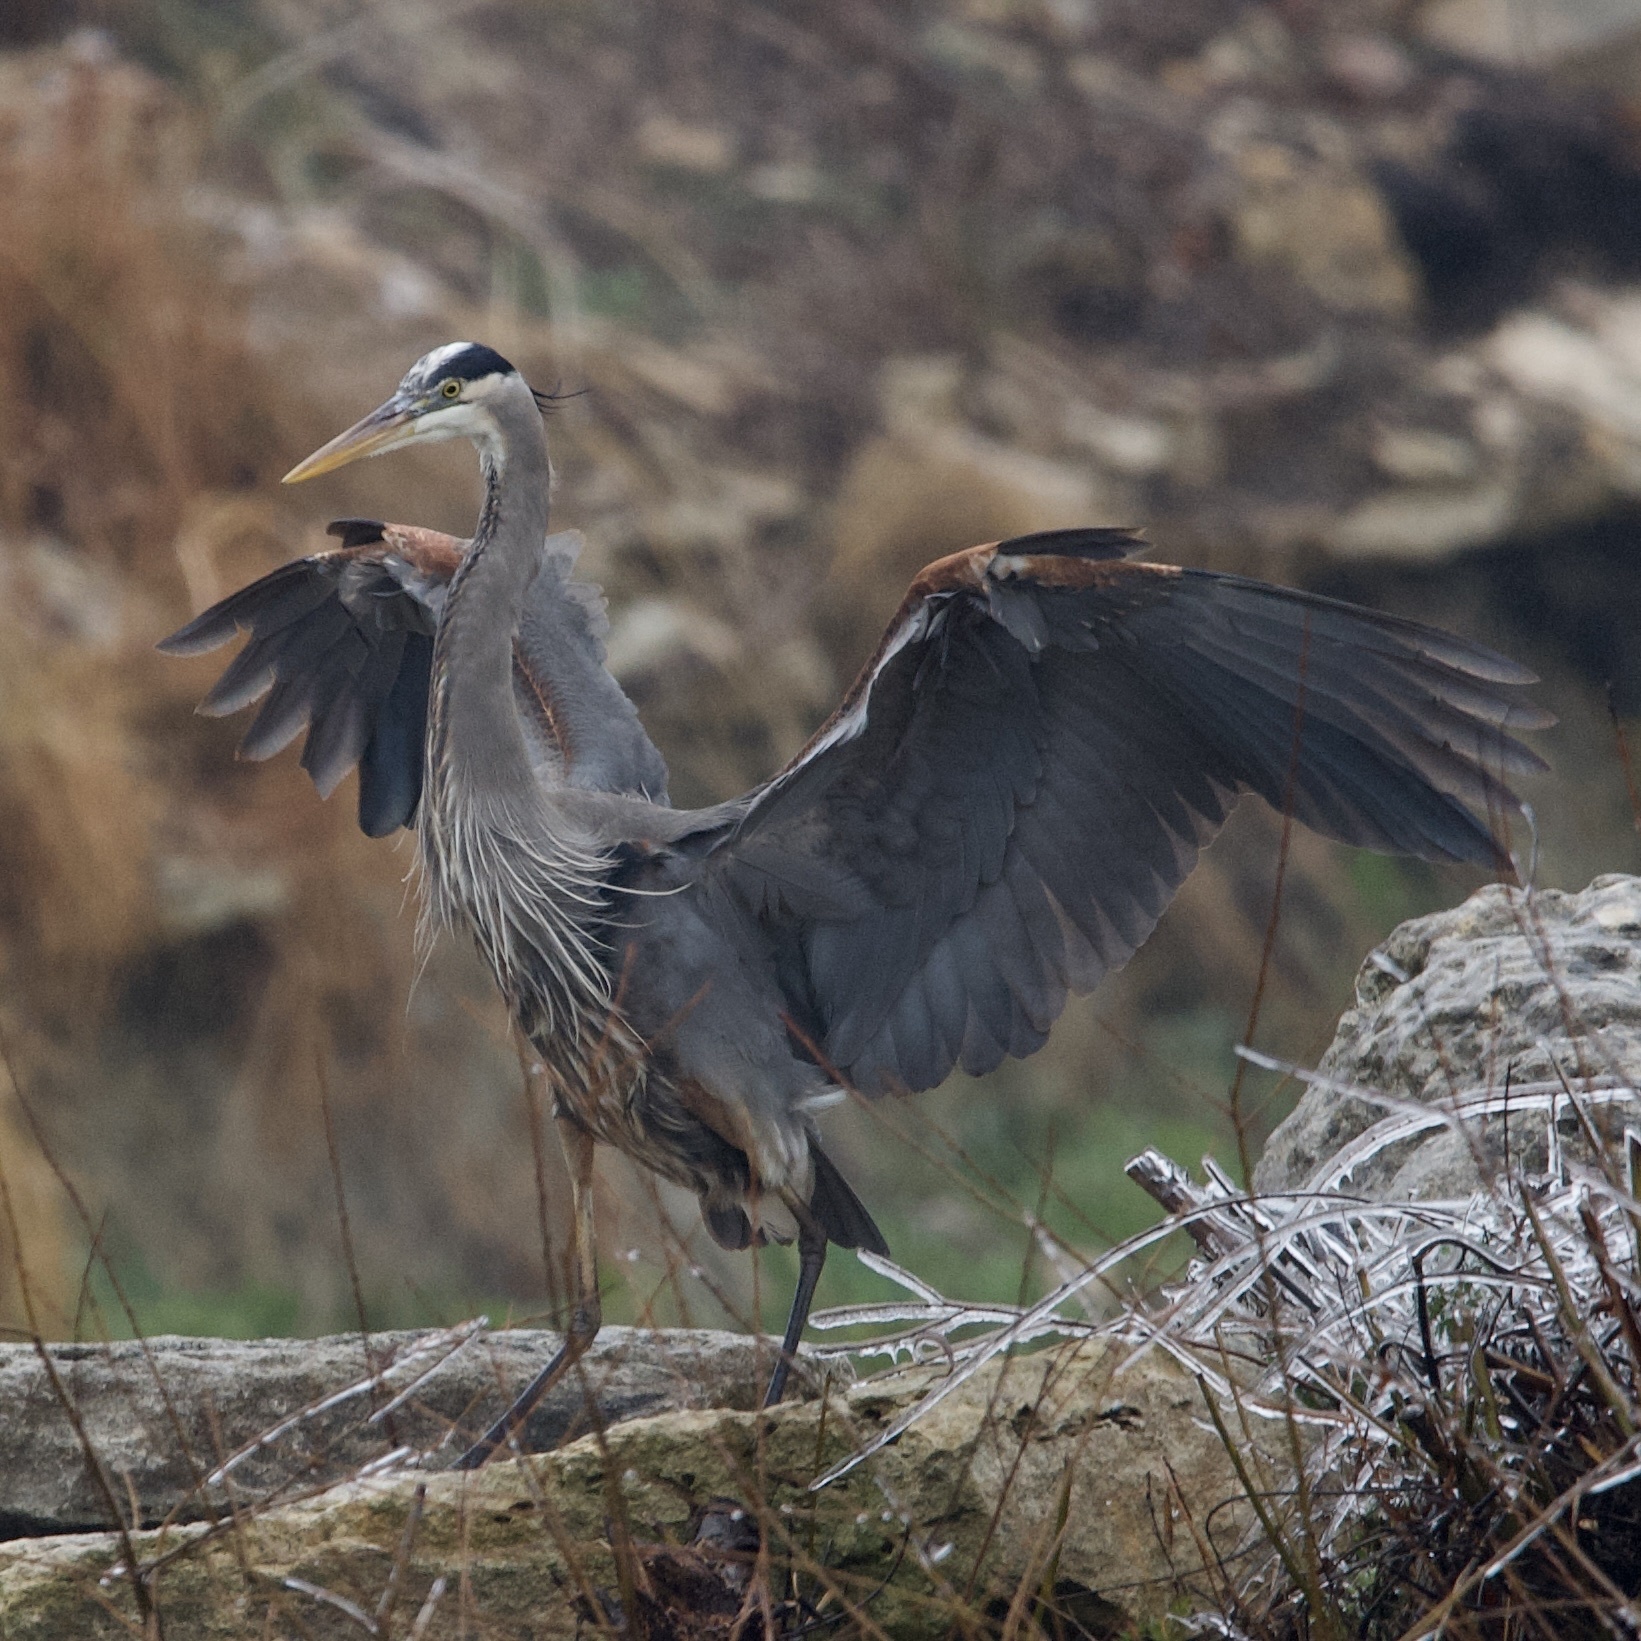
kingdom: Animalia
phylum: Chordata
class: Aves
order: Pelecaniformes
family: Ardeidae
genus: Ardea
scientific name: Ardea herodias
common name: Great blue heron
